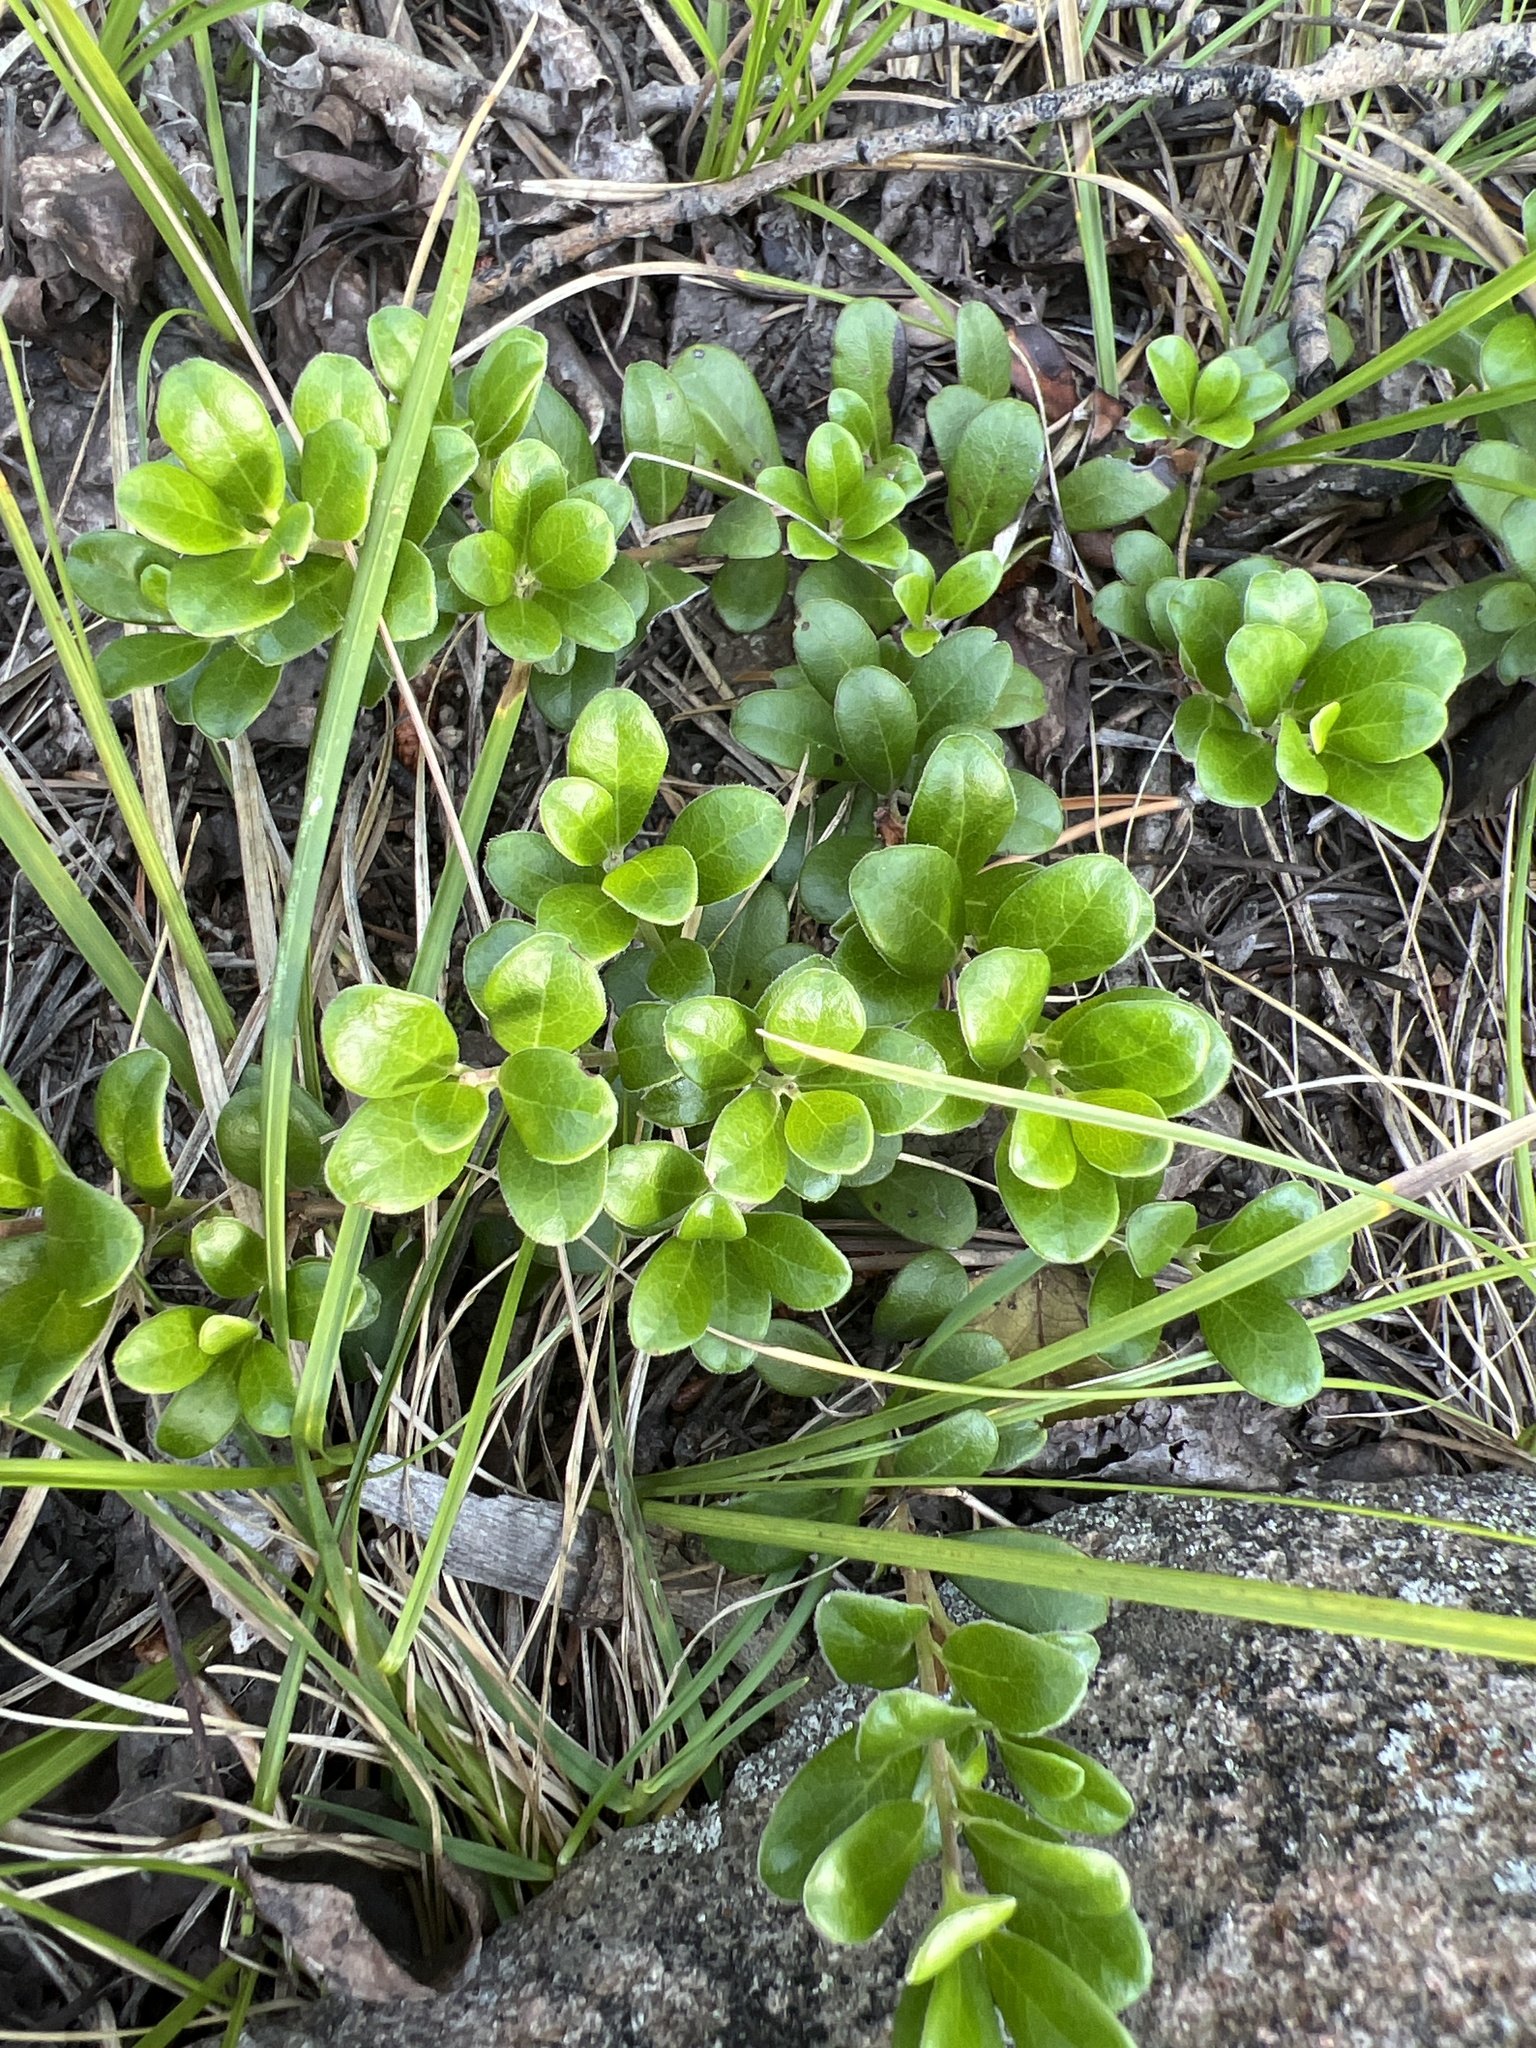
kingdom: Plantae
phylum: Tracheophyta
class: Magnoliopsida
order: Ericales
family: Ericaceae
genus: Arctostaphylos
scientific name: Arctostaphylos uva-ursi
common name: Bearberry
